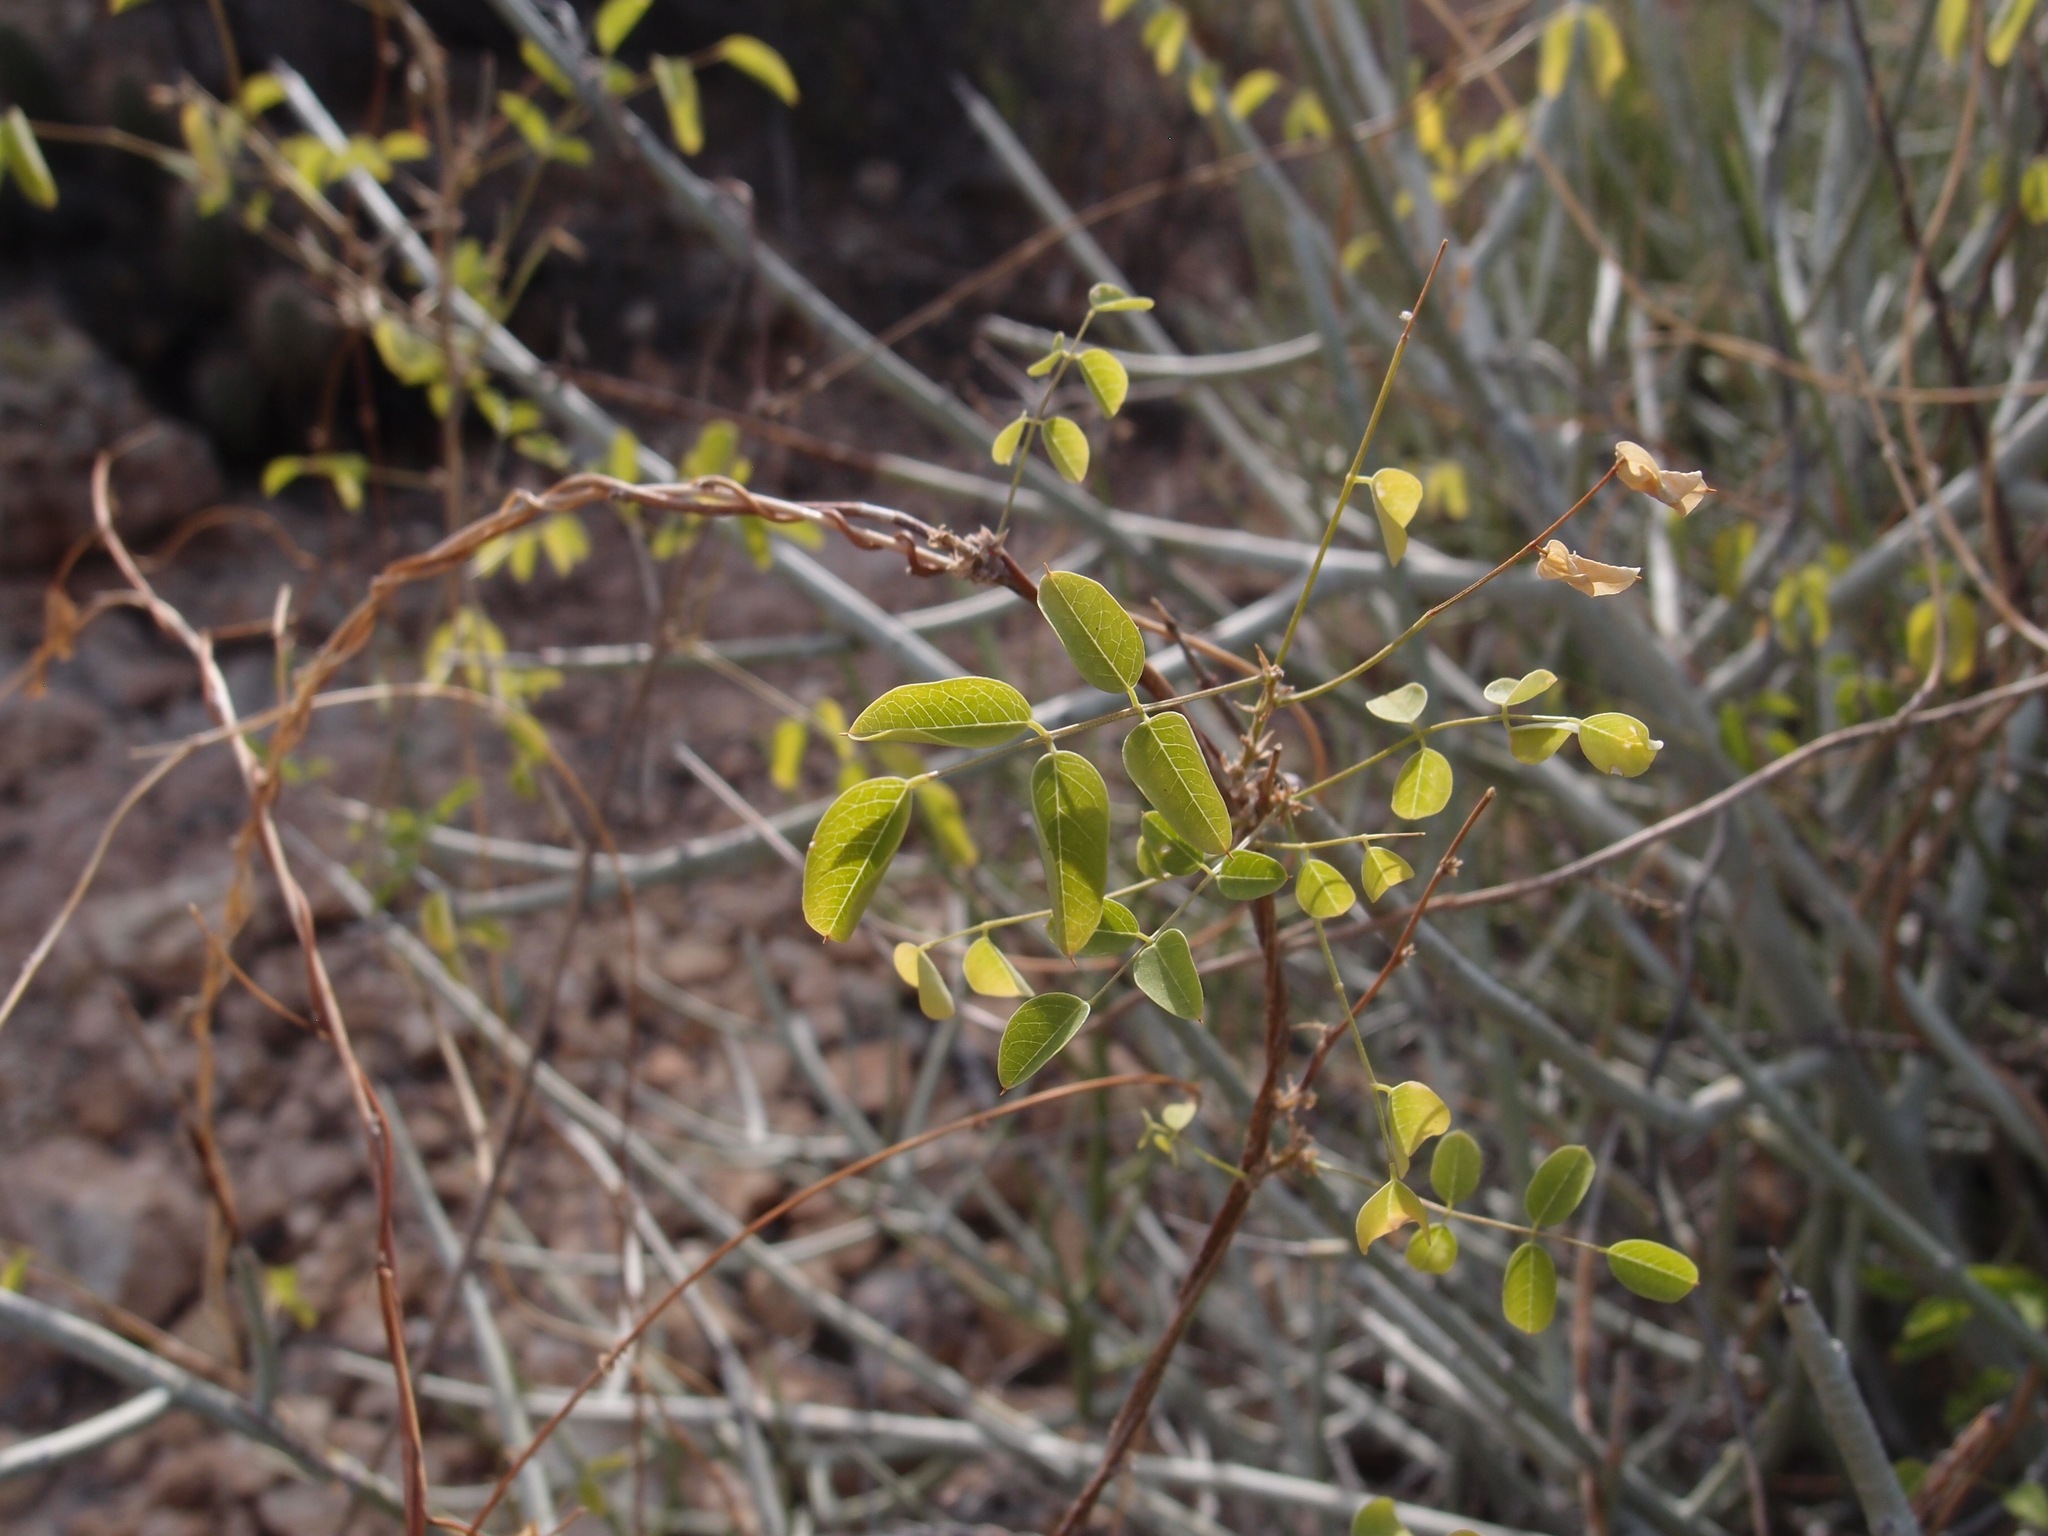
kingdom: Plantae
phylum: Tracheophyta
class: Magnoliopsida
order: Fabales
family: Fabaceae
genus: Nissolia
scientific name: Nissolia schottii
